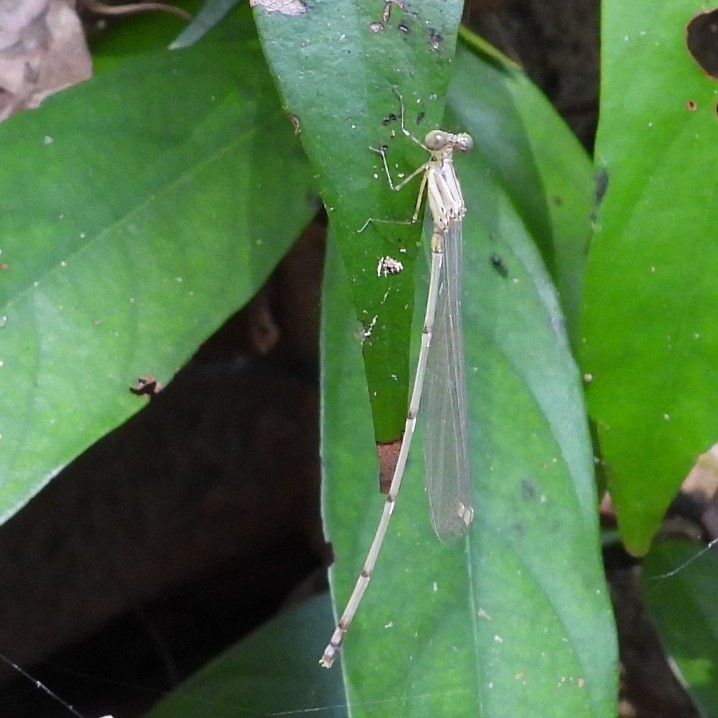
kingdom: Animalia
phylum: Arthropoda
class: Insecta
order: Odonata
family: Platycnemididae
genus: Prodasineura
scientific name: Prodasineura verticalis
